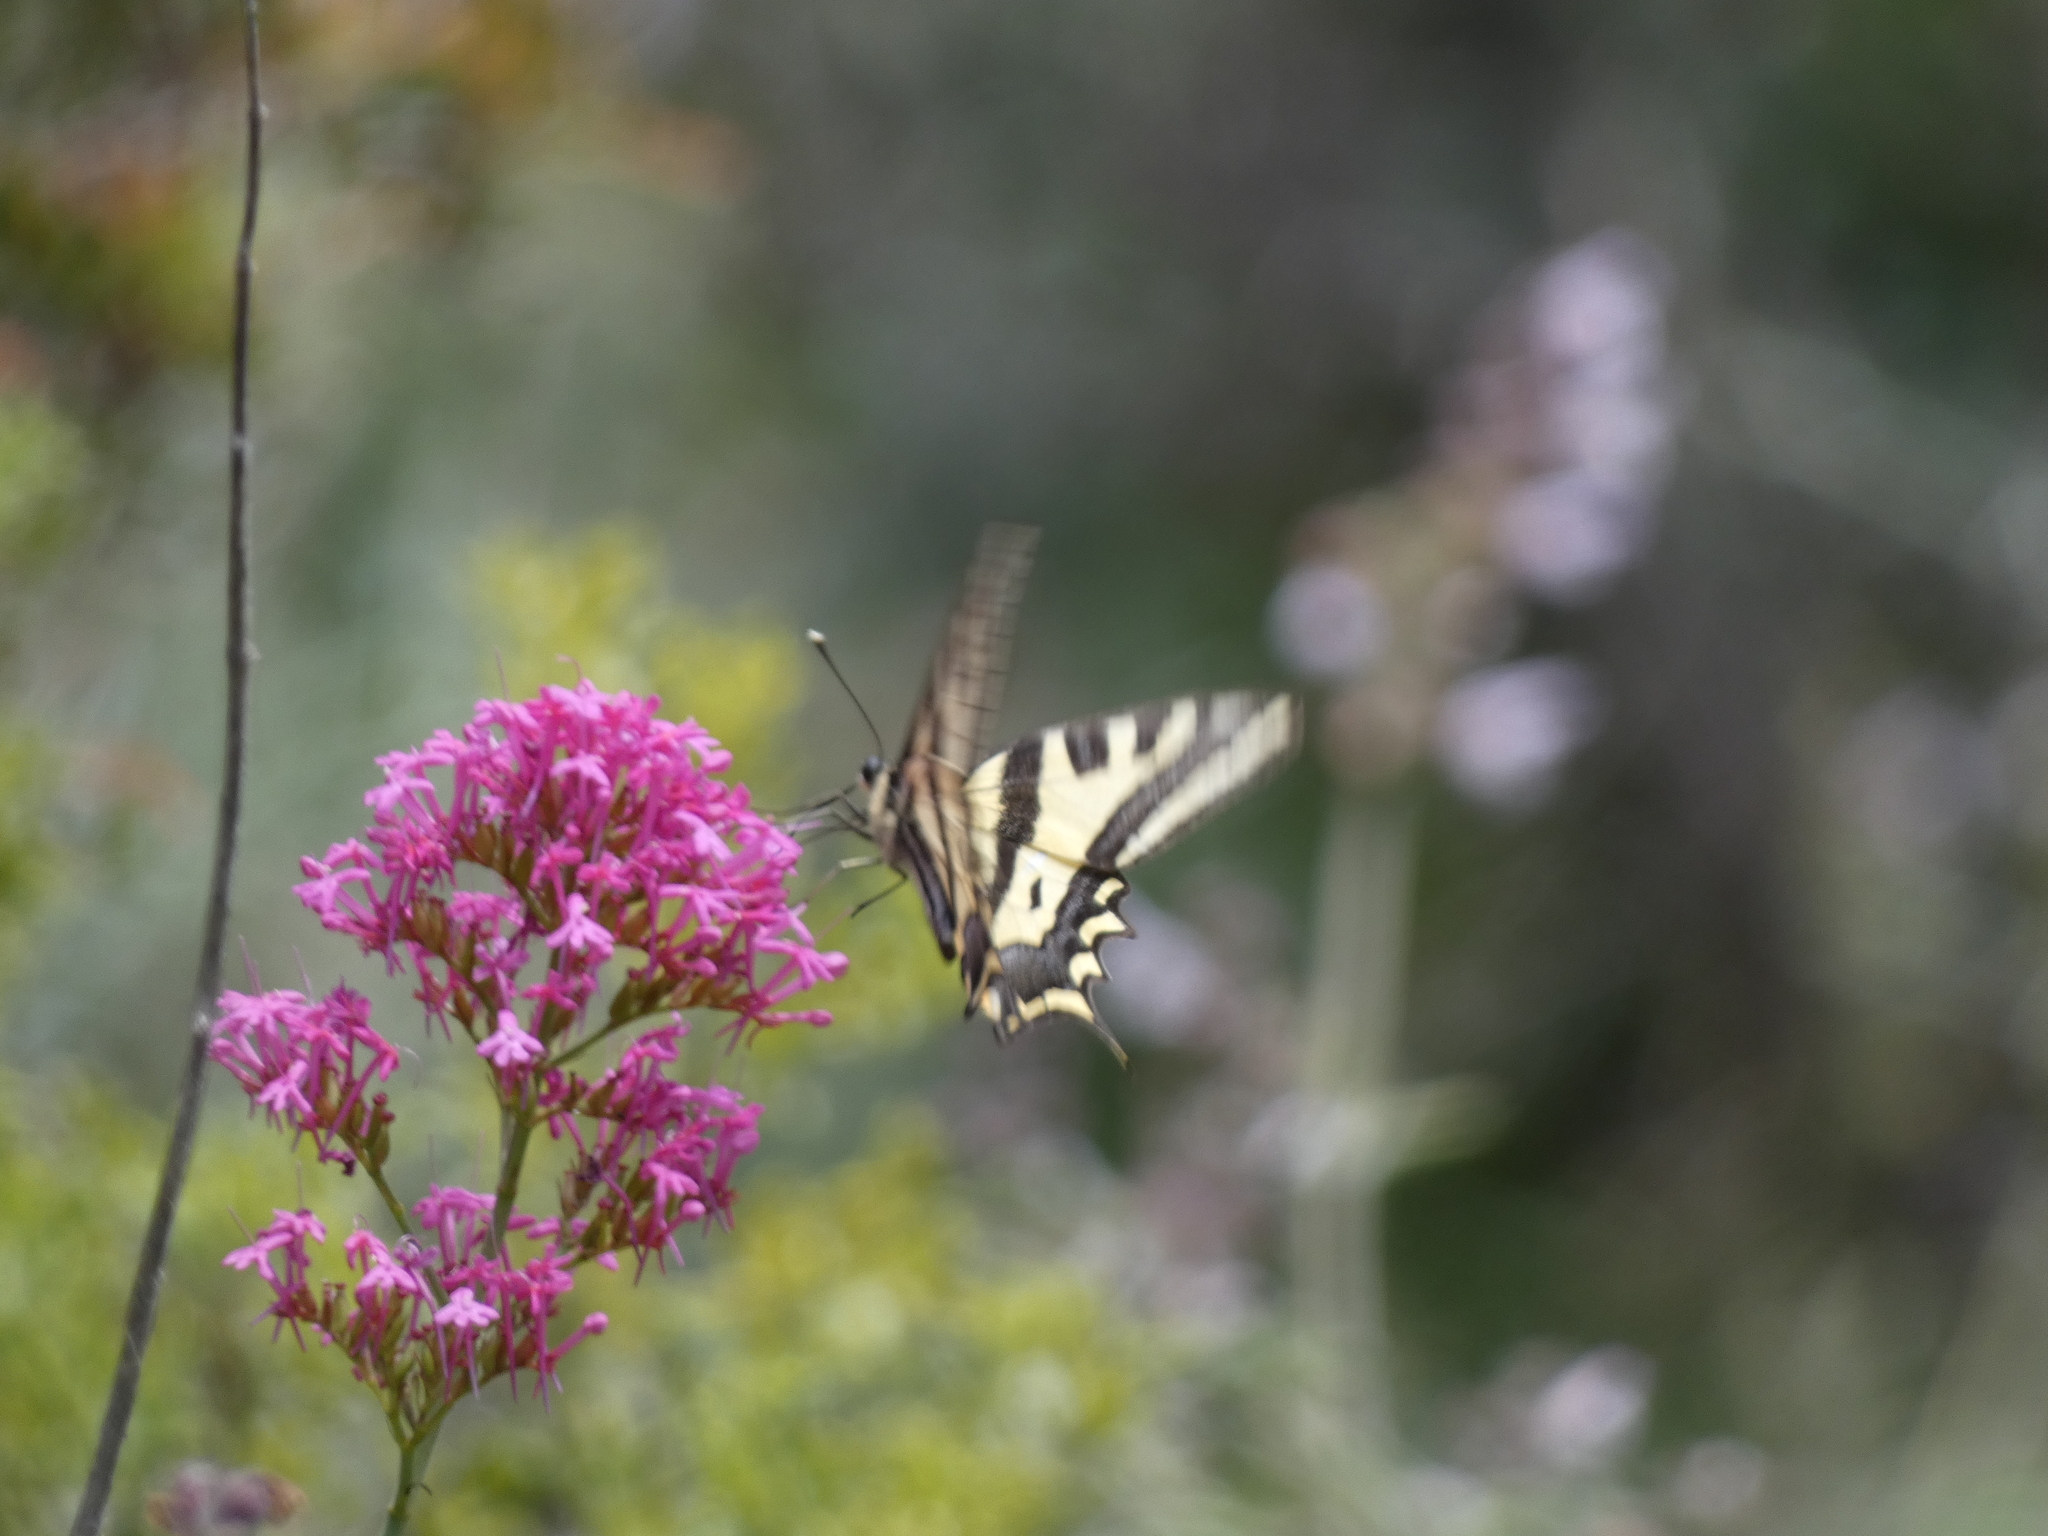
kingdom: Animalia
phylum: Arthropoda
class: Insecta
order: Lepidoptera
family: Papilionidae
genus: Papilio
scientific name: Papilio alexanor
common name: Southern swallowtail
